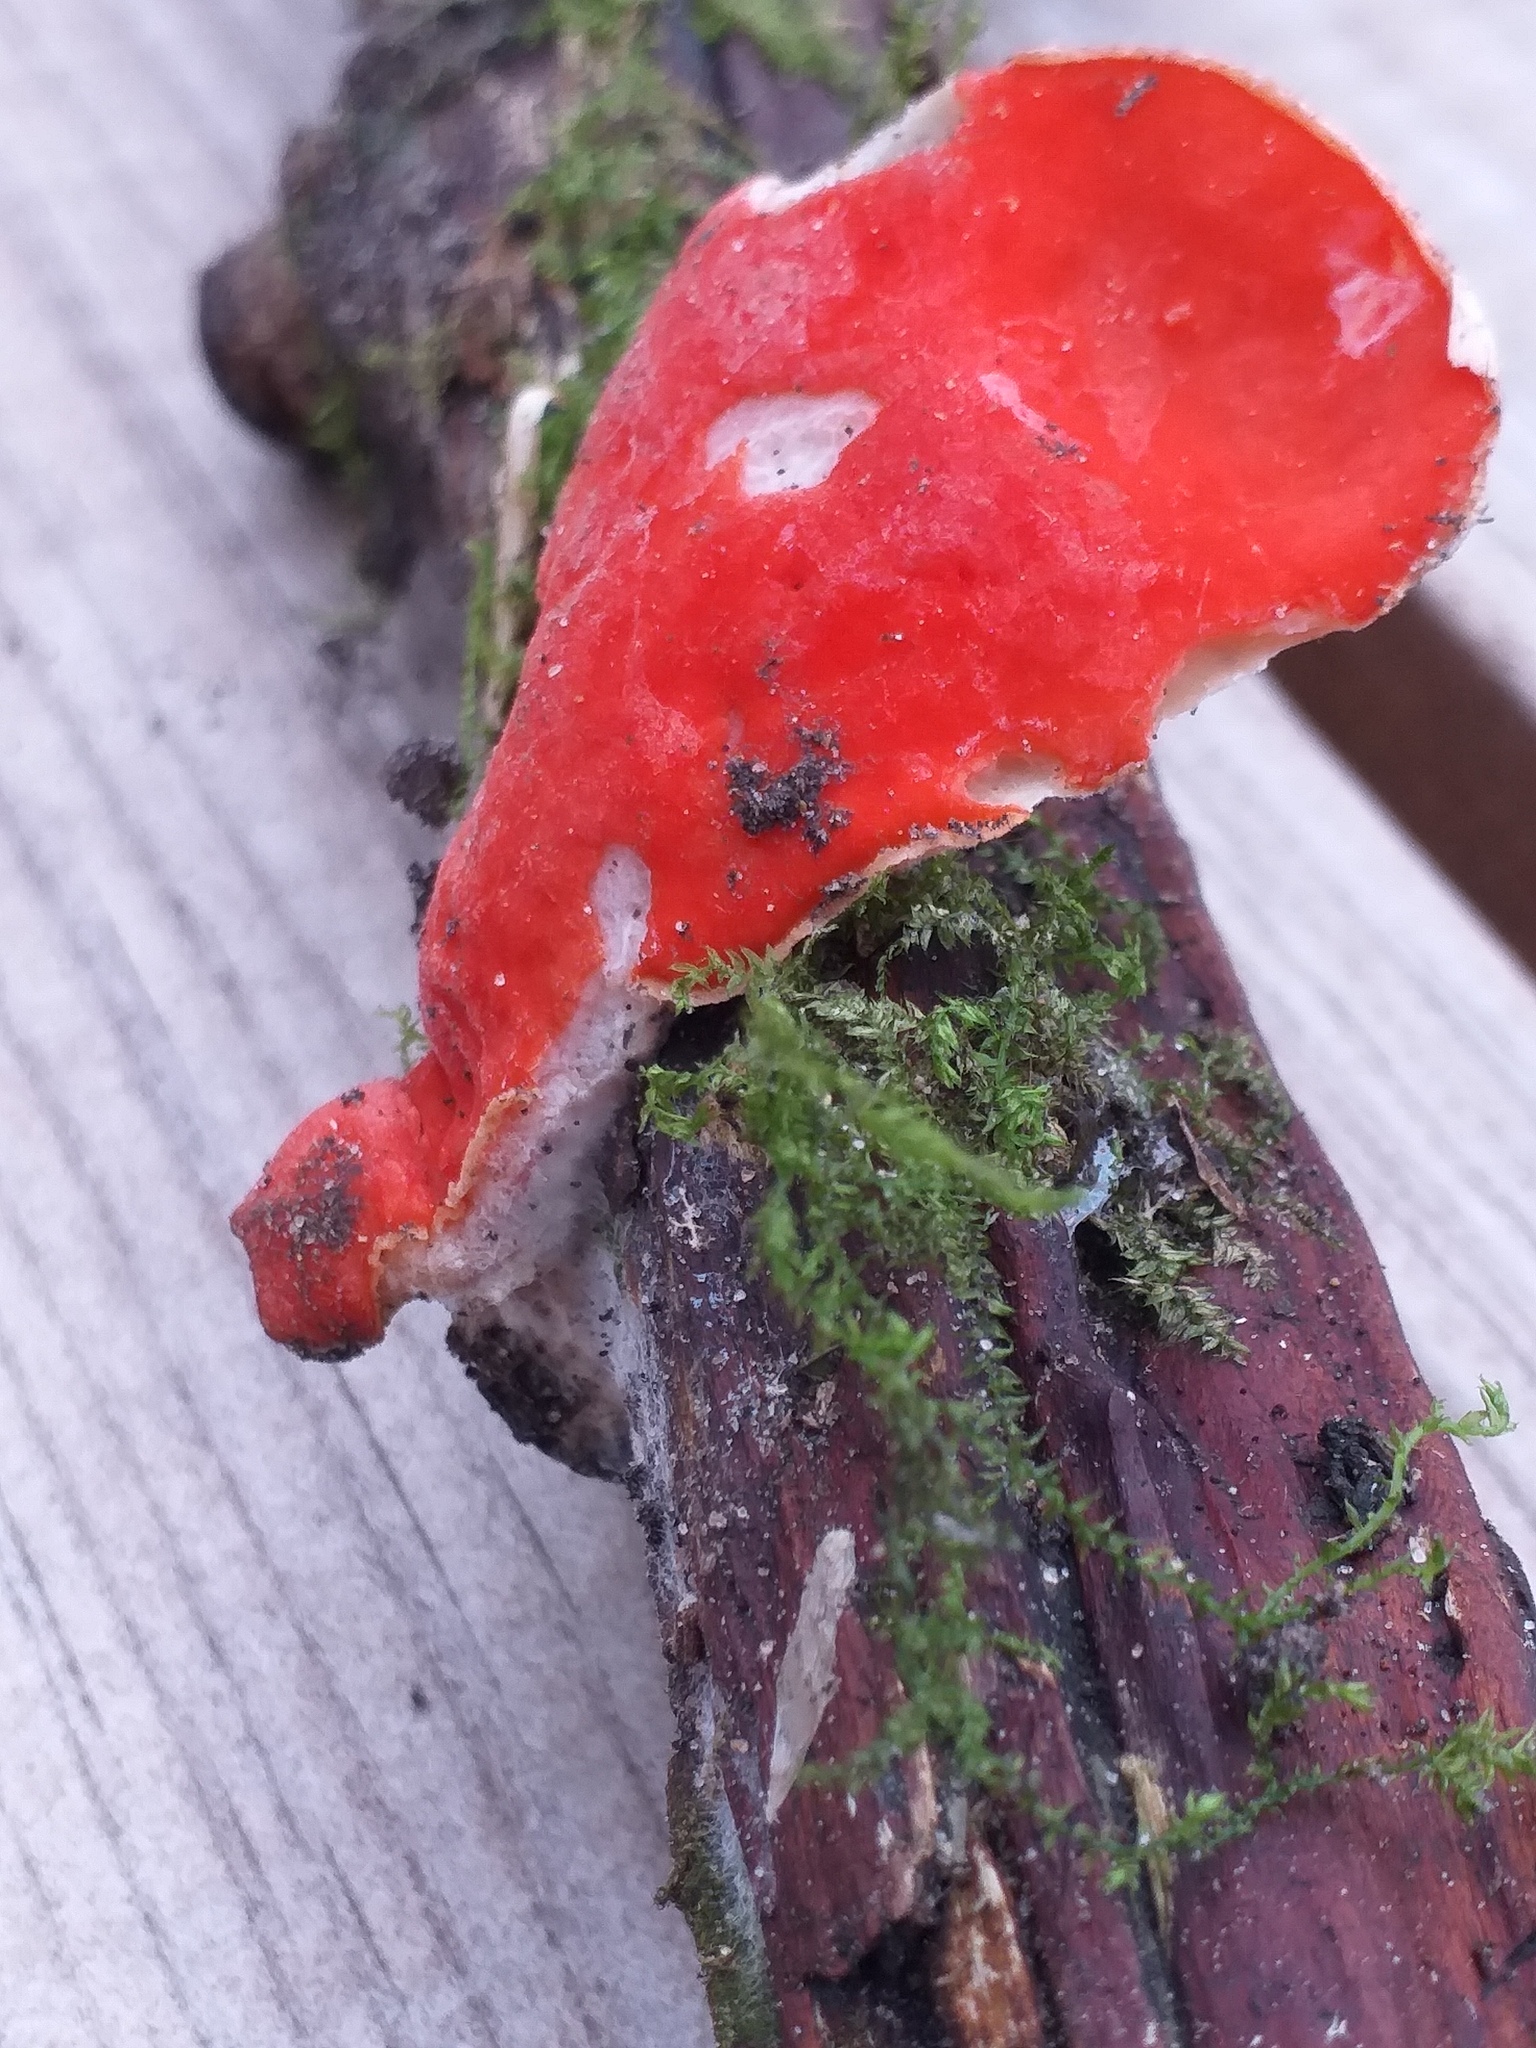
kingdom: Fungi
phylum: Ascomycota
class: Pezizomycetes
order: Pezizales
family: Sarcoscyphaceae
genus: Sarcoscypha
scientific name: Sarcoscypha
